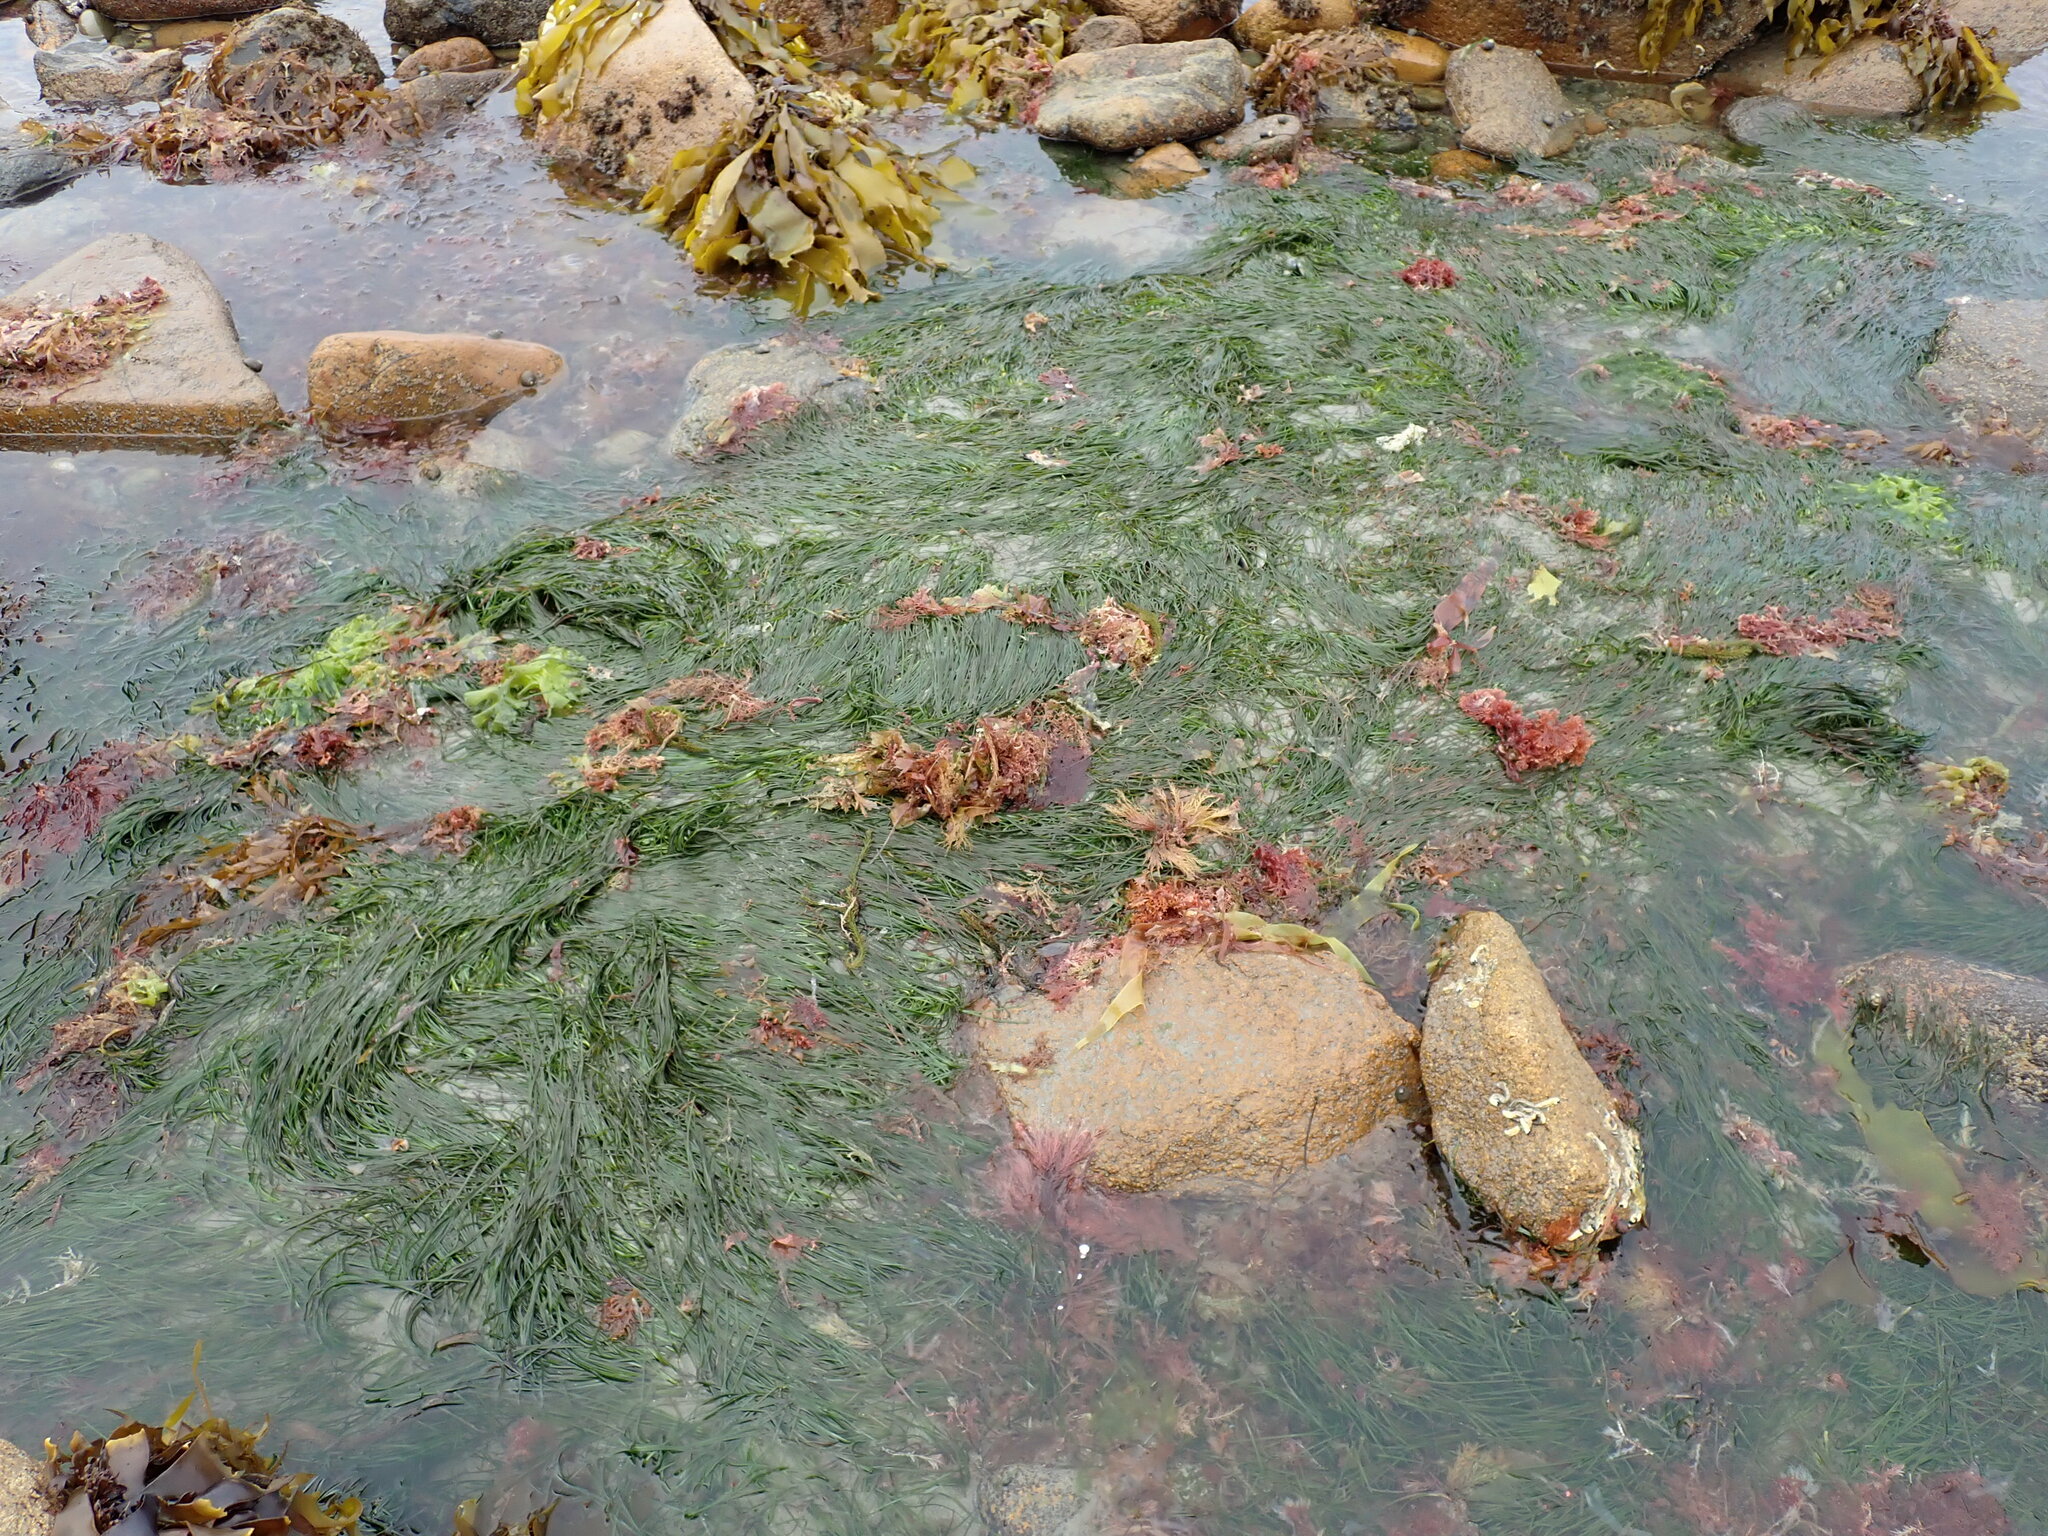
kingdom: Plantae
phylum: Tracheophyta
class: Liliopsida
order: Alismatales
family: Zosteraceae
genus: Zostera
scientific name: Zostera novazelandica
